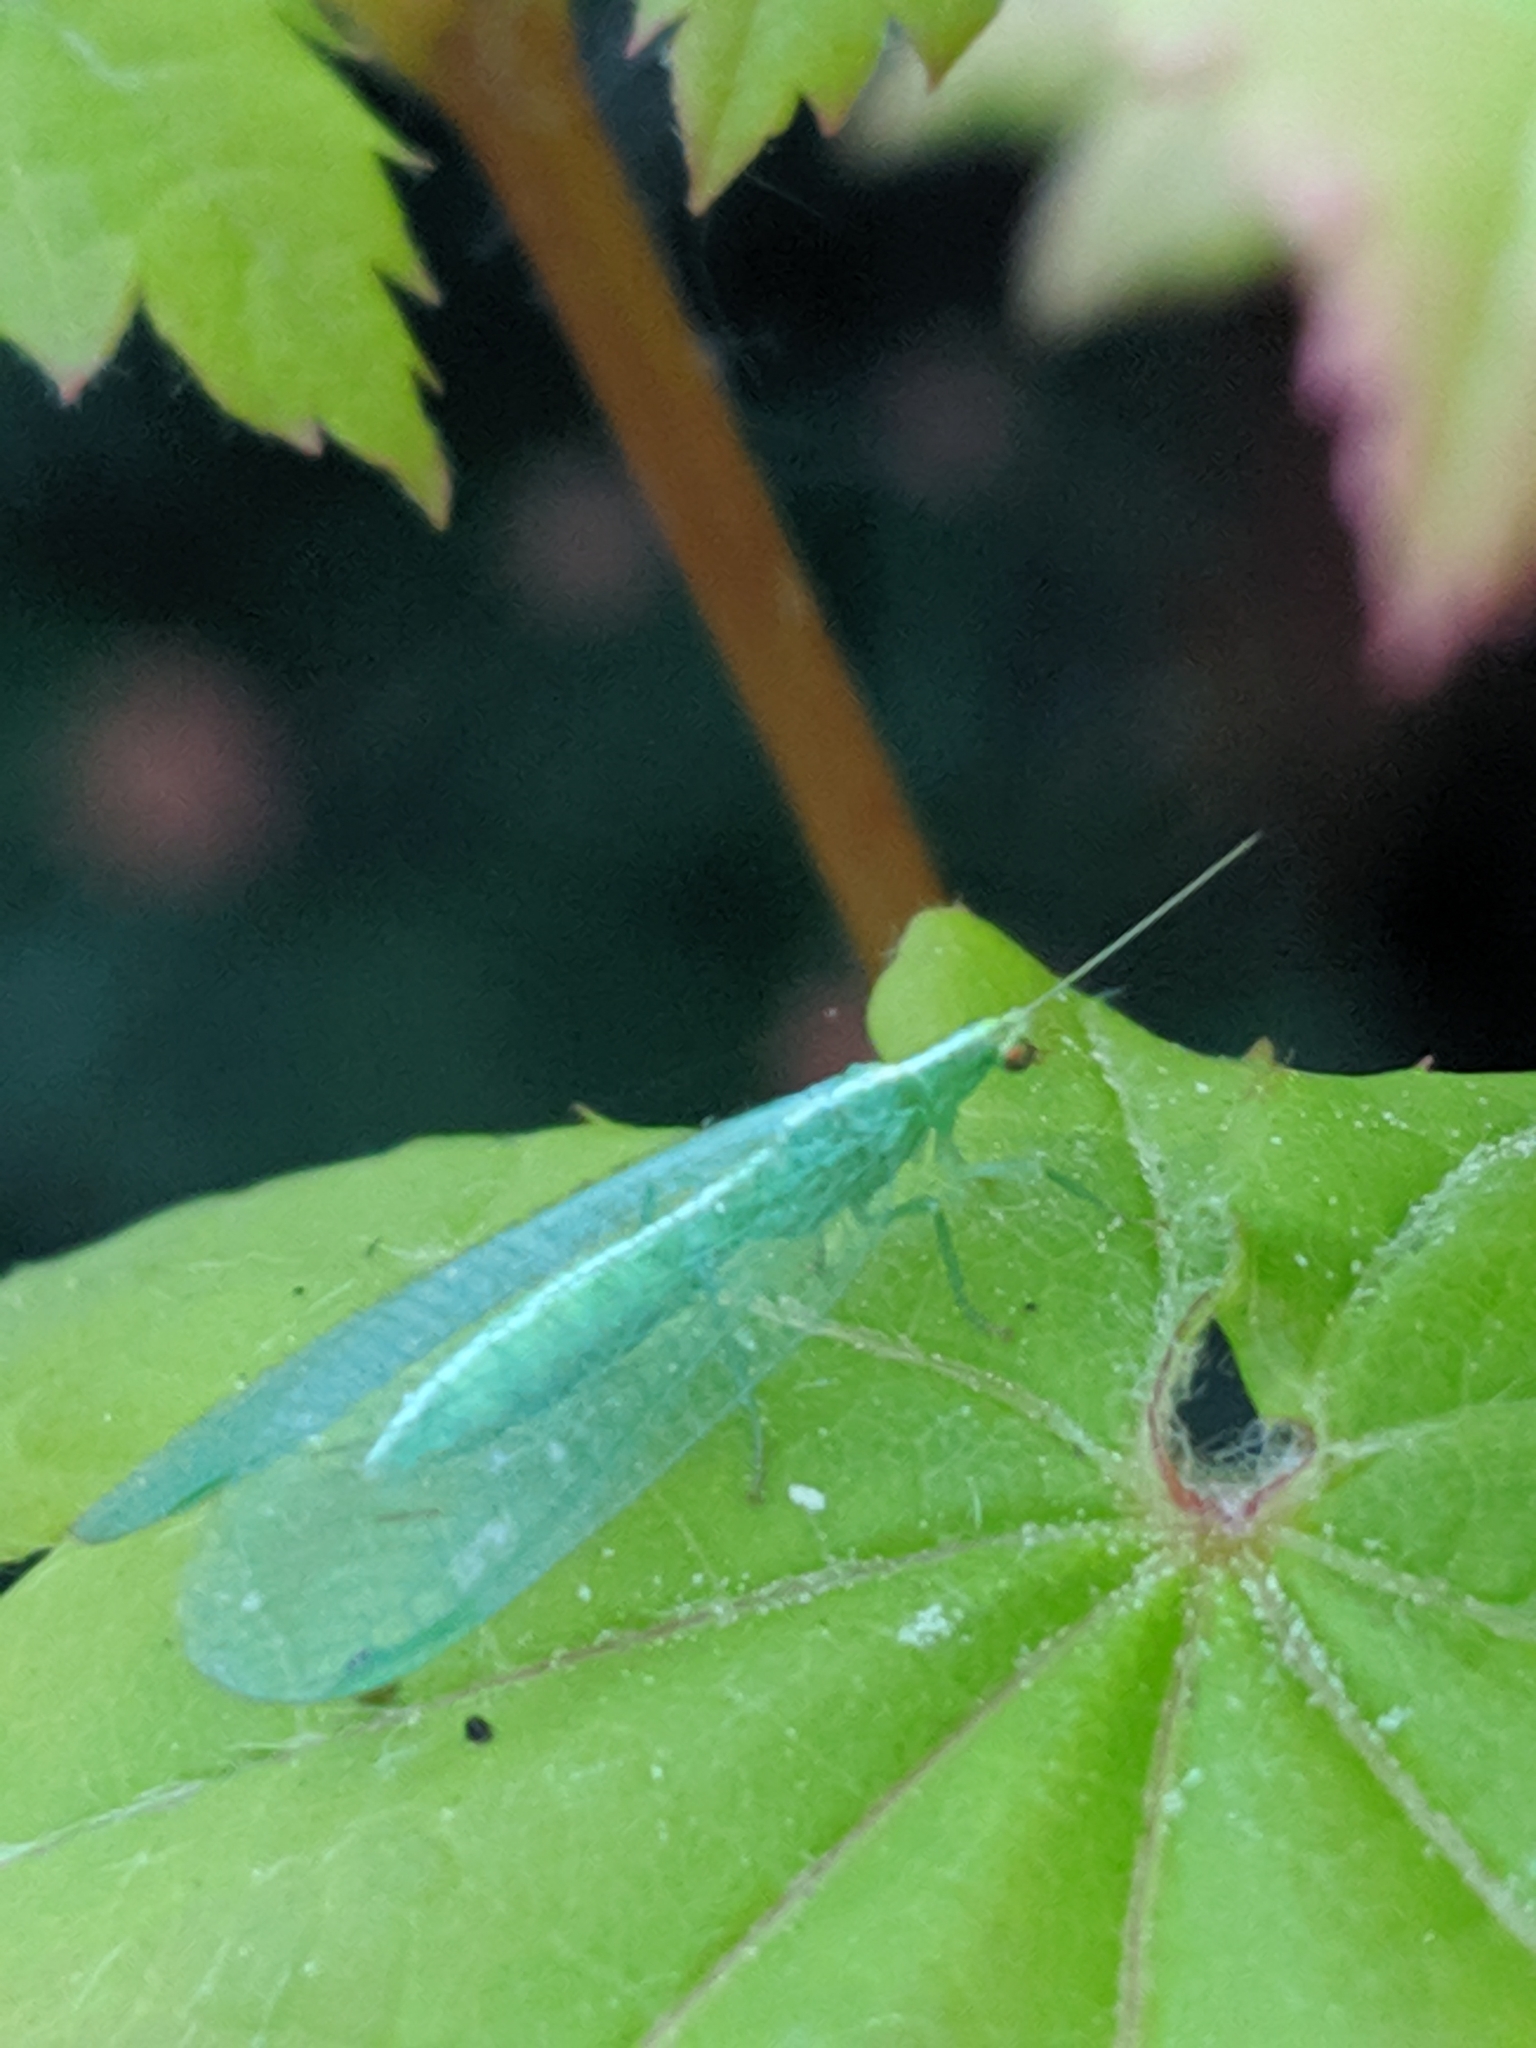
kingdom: Animalia
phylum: Arthropoda
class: Insecta
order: Neuroptera
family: Chrysopidae
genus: Chrysoperla
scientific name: Chrysoperla
